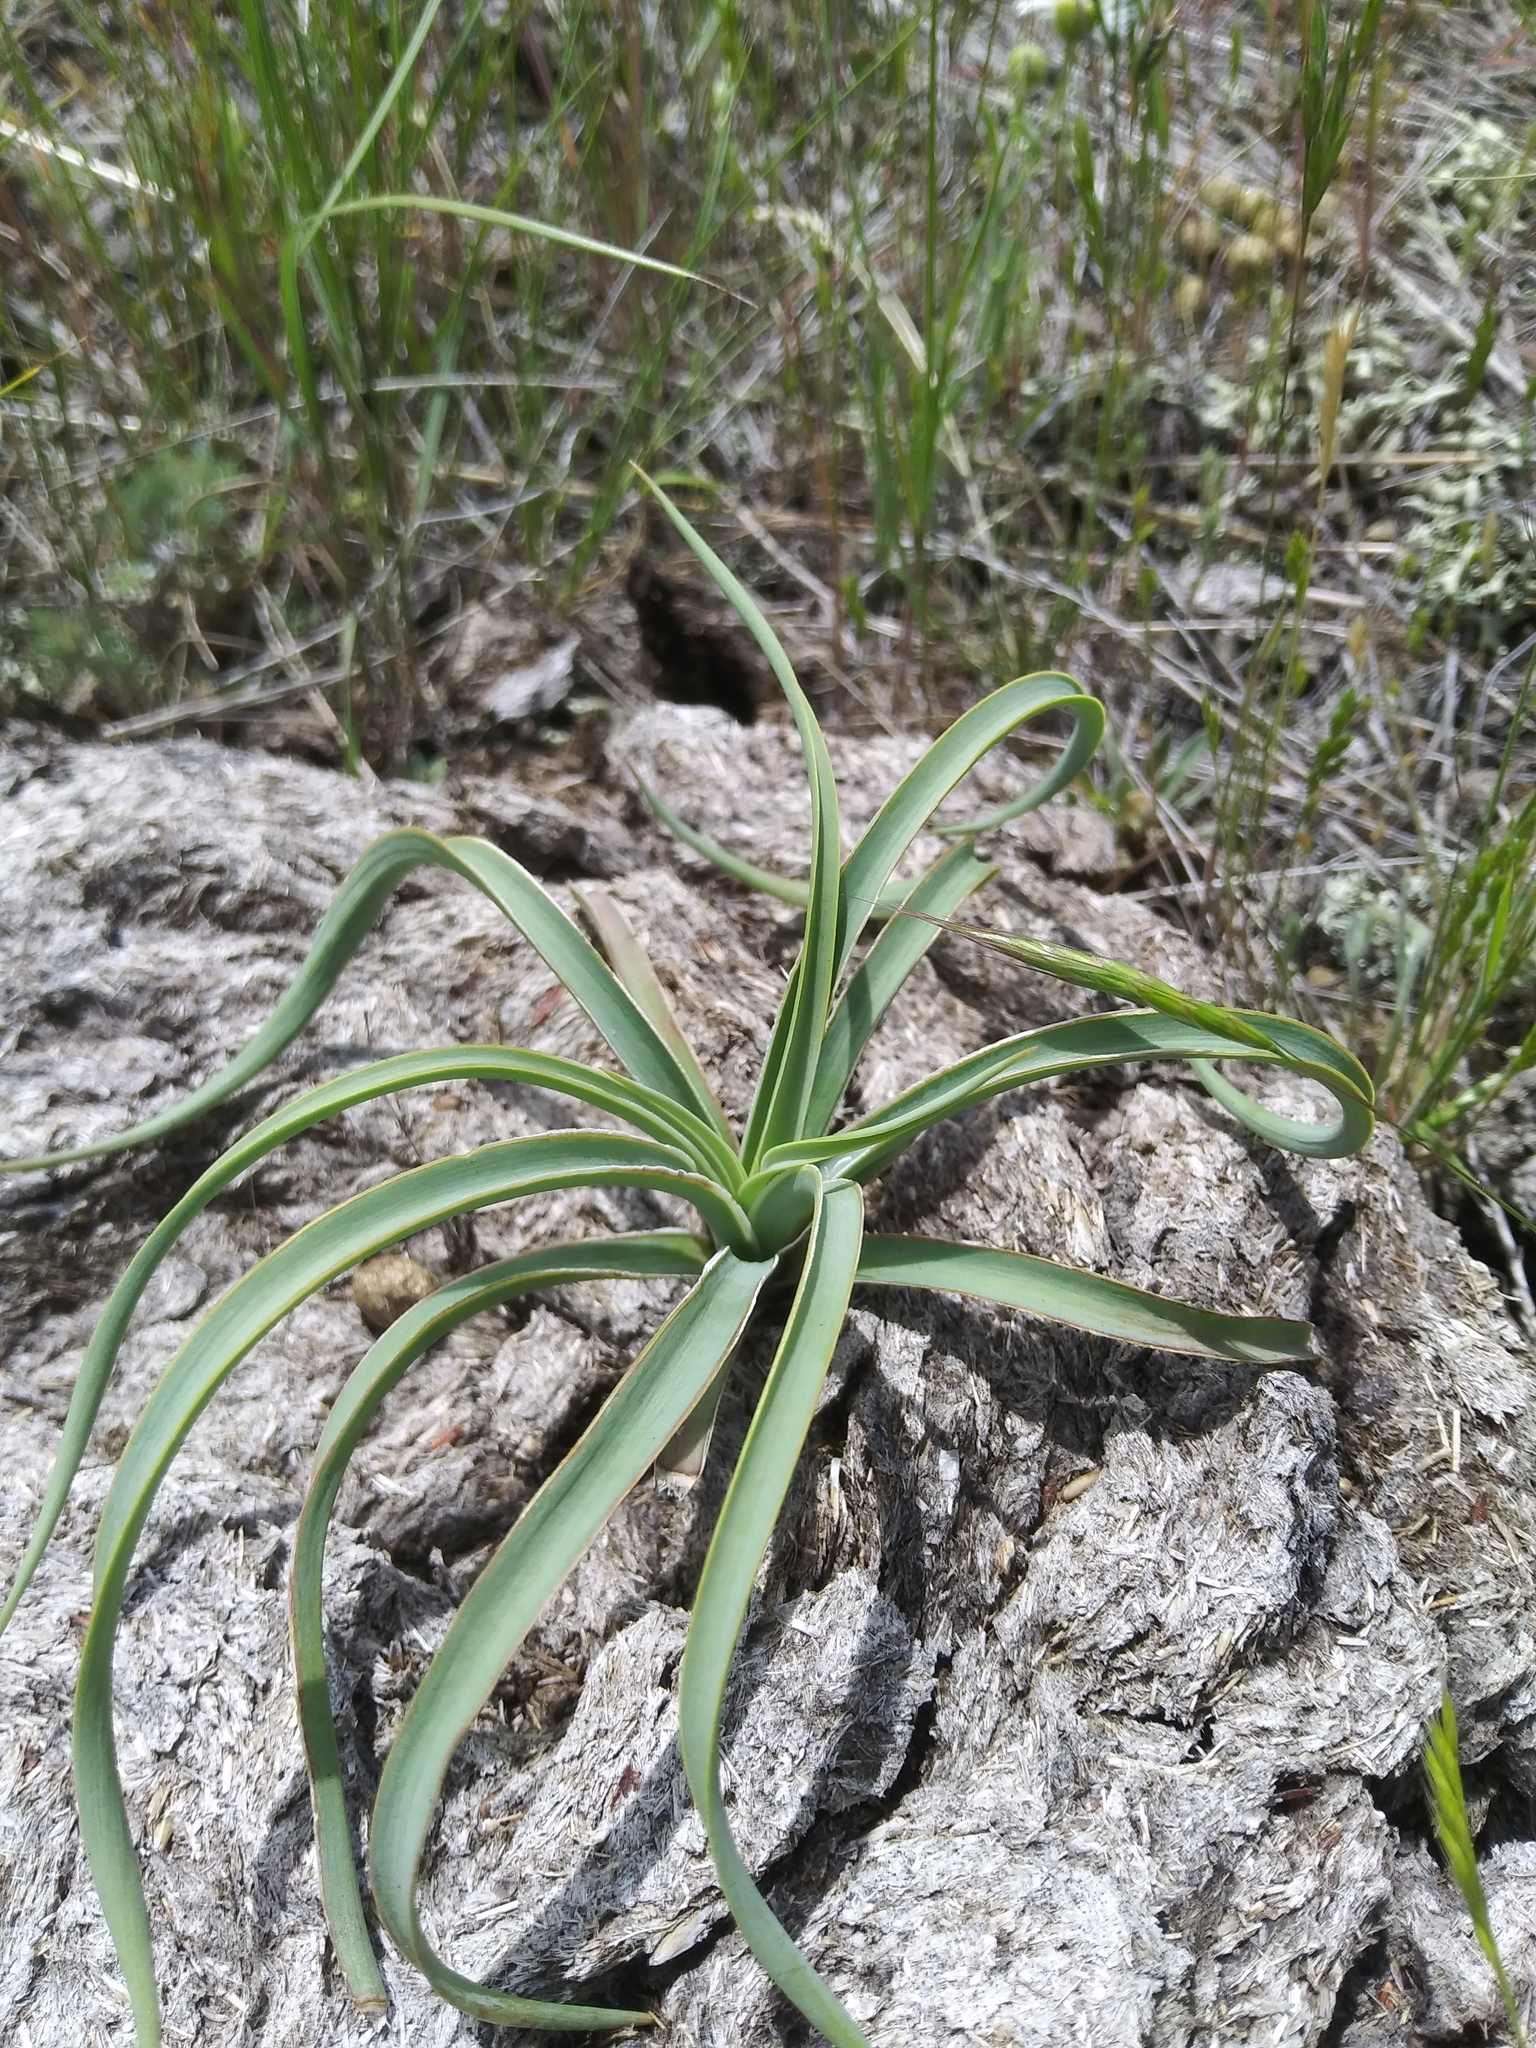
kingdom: Plantae
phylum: Tracheophyta
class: Liliopsida
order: Asparagales
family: Asparagaceae
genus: Yucca
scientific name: Yucca glauca
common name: Great plains yucca
